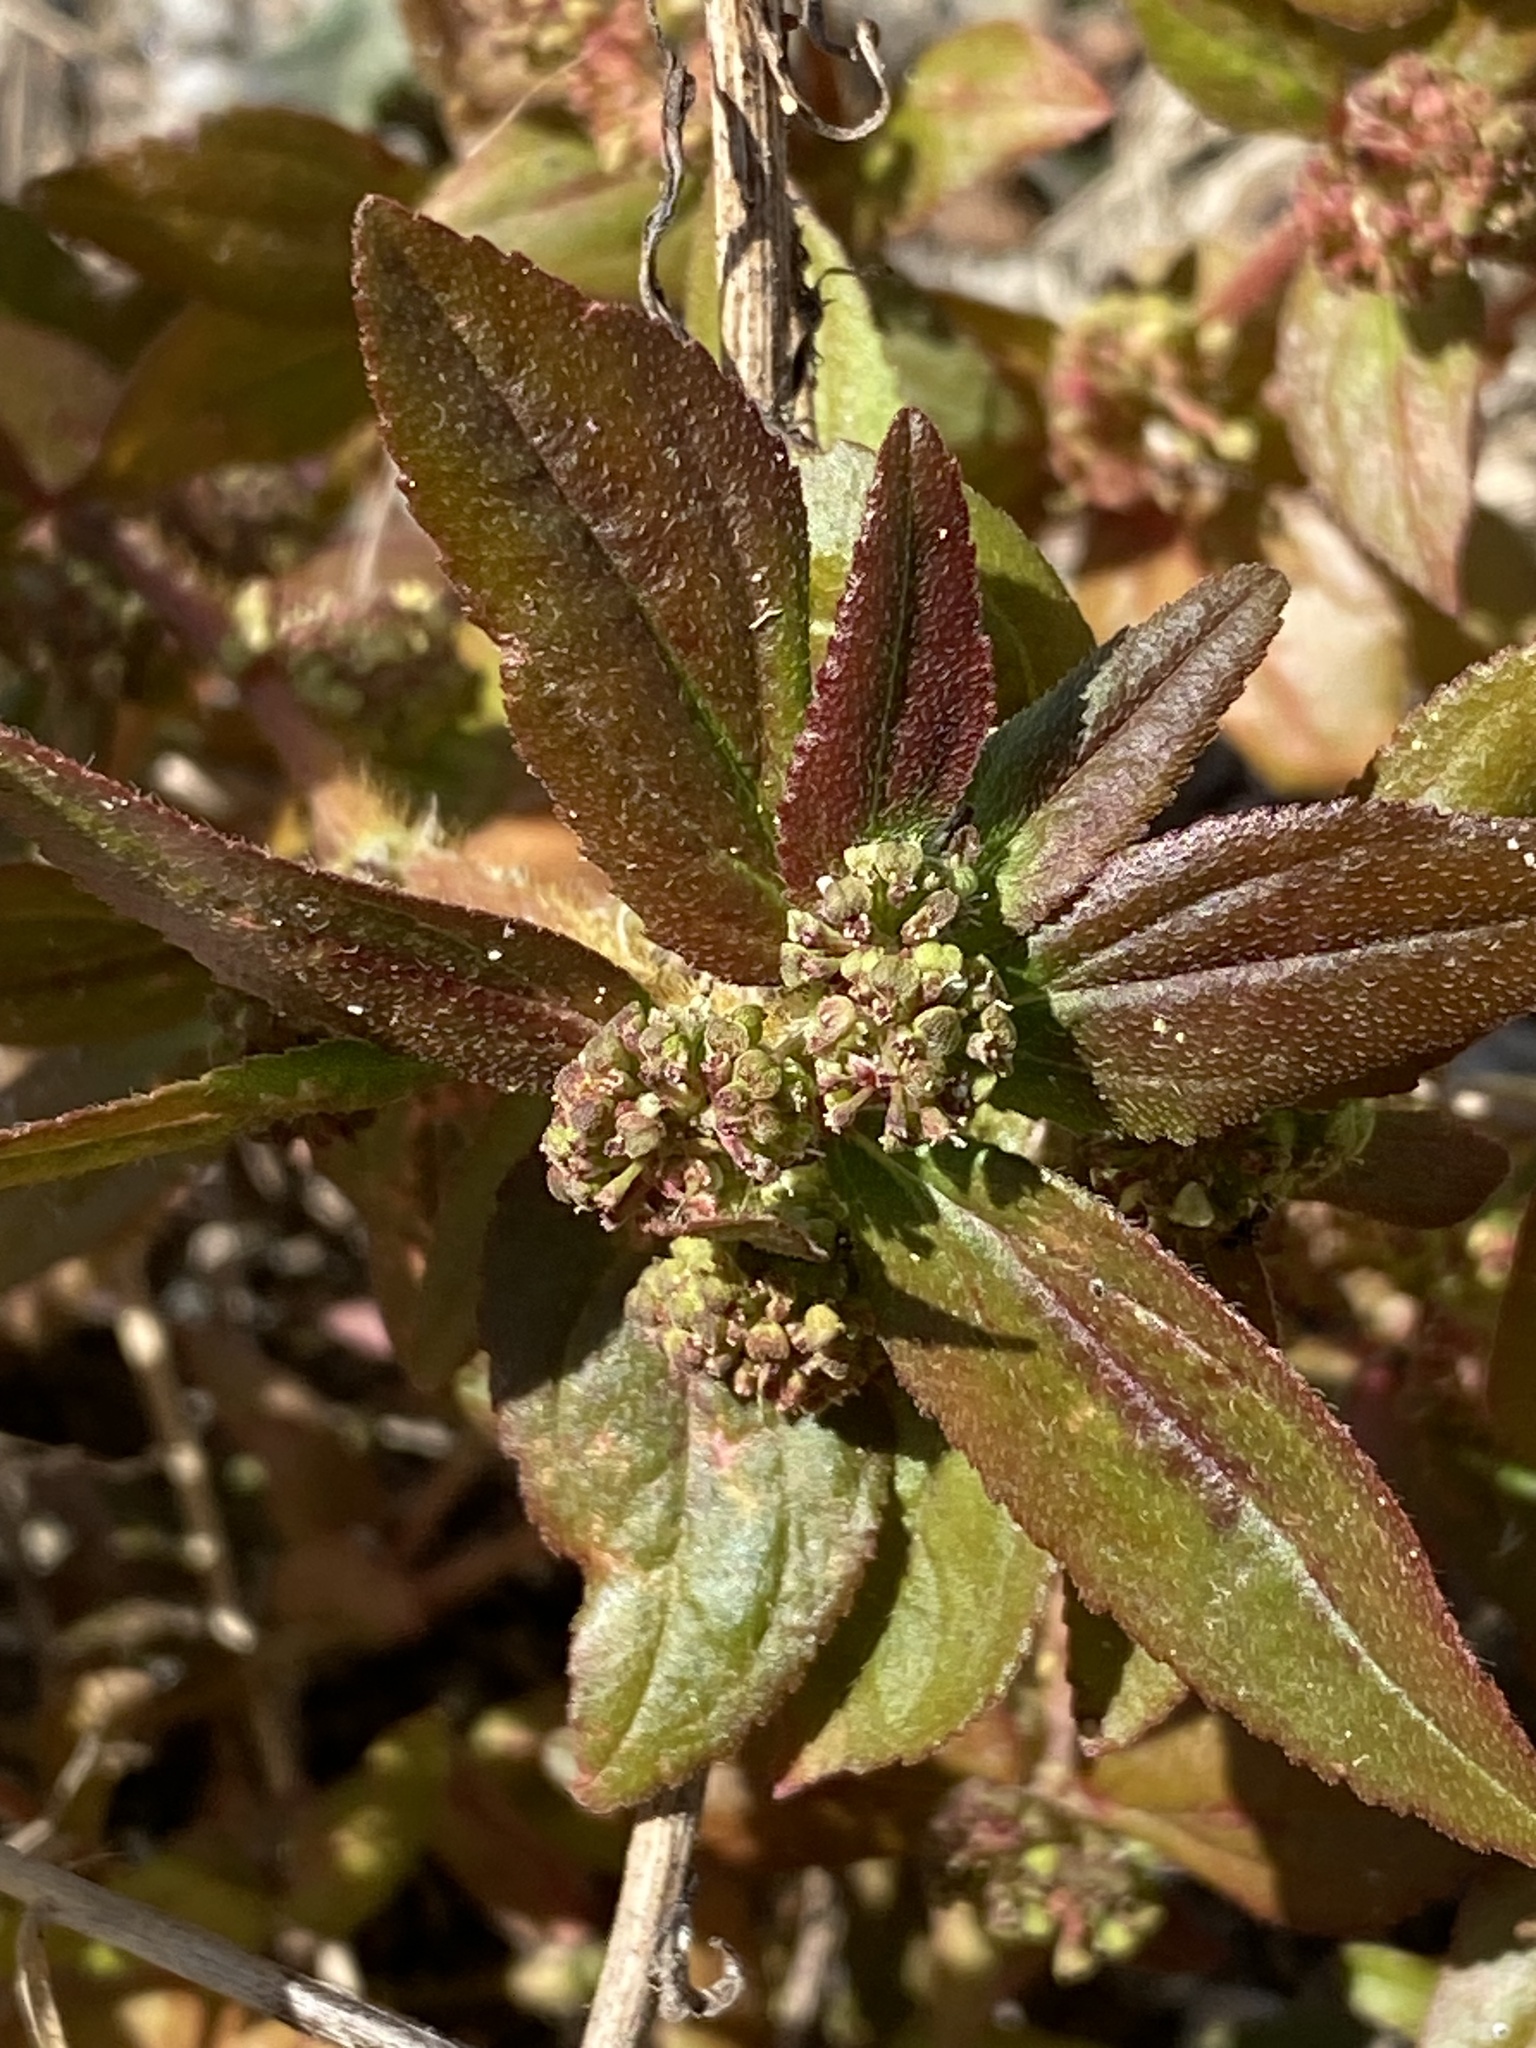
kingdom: Plantae
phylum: Tracheophyta
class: Magnoliopsida
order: Malpighiales
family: Euphorbiaceae
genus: Euphorbia
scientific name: Euphorbia hirta
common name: Pillpod sandmat
